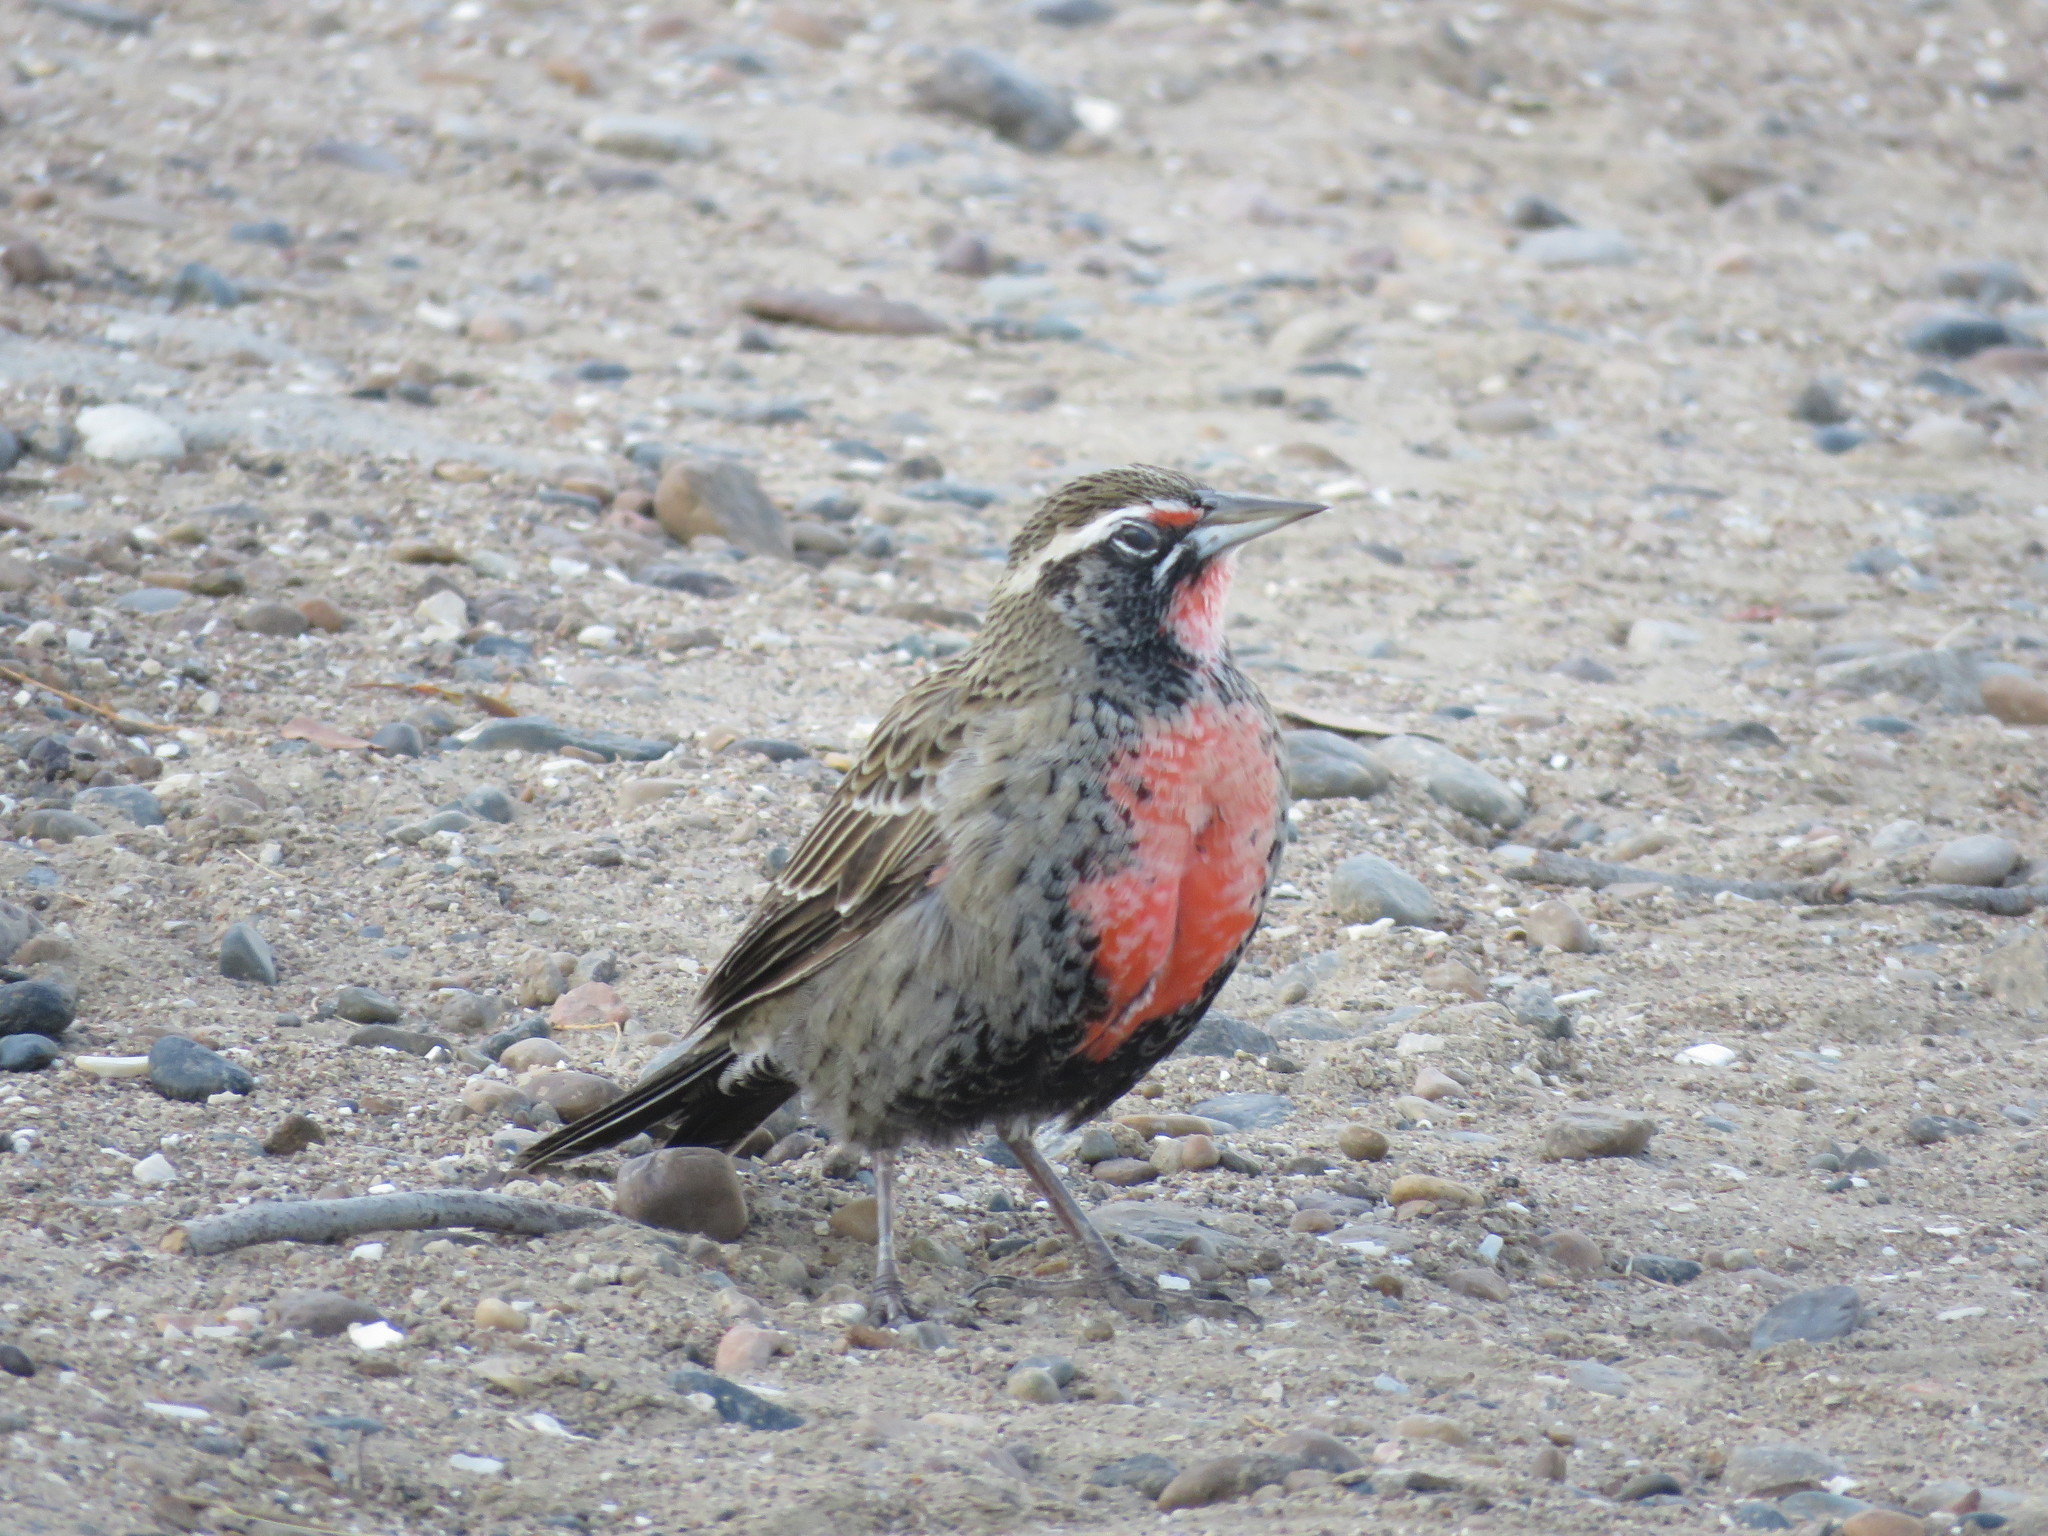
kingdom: Animalia
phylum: Chordata
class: Aves
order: Passeriformes
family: Icteridae
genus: Sturnella
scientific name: Sturnella loyca
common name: Long-tailed meadowlark
